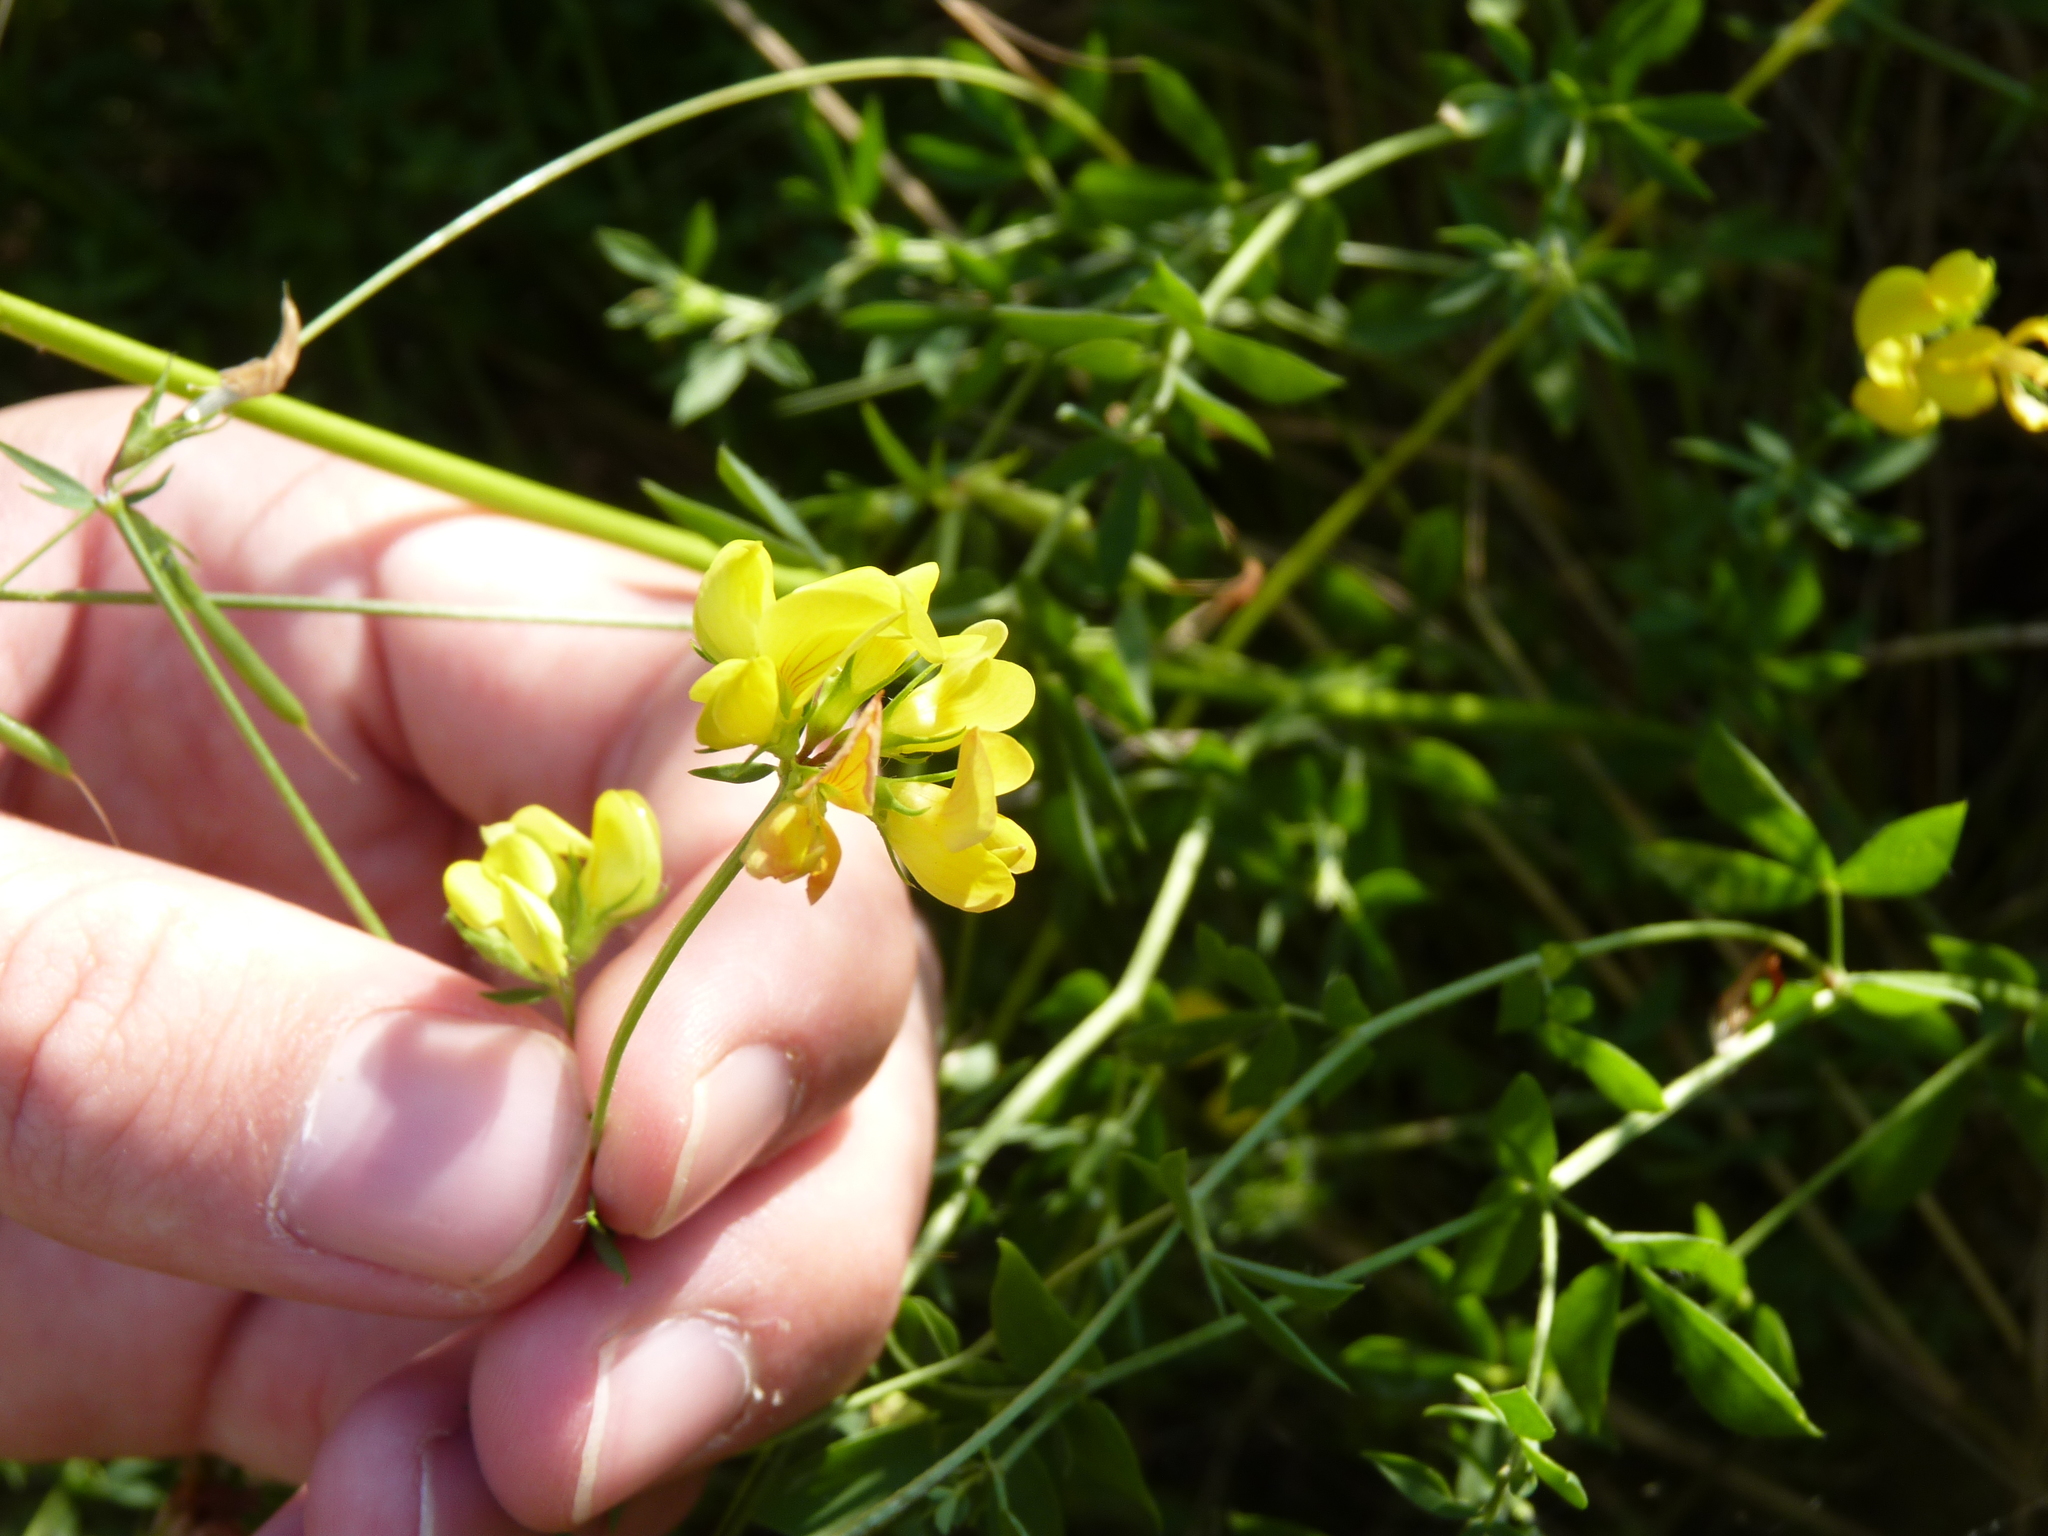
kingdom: Plantae
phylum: Tracheophyta
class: Magnoliopsida
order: Fabales
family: Fabaceae
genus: Lotus
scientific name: Lotus corniculatus
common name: Common bird's-foot-trefoil
